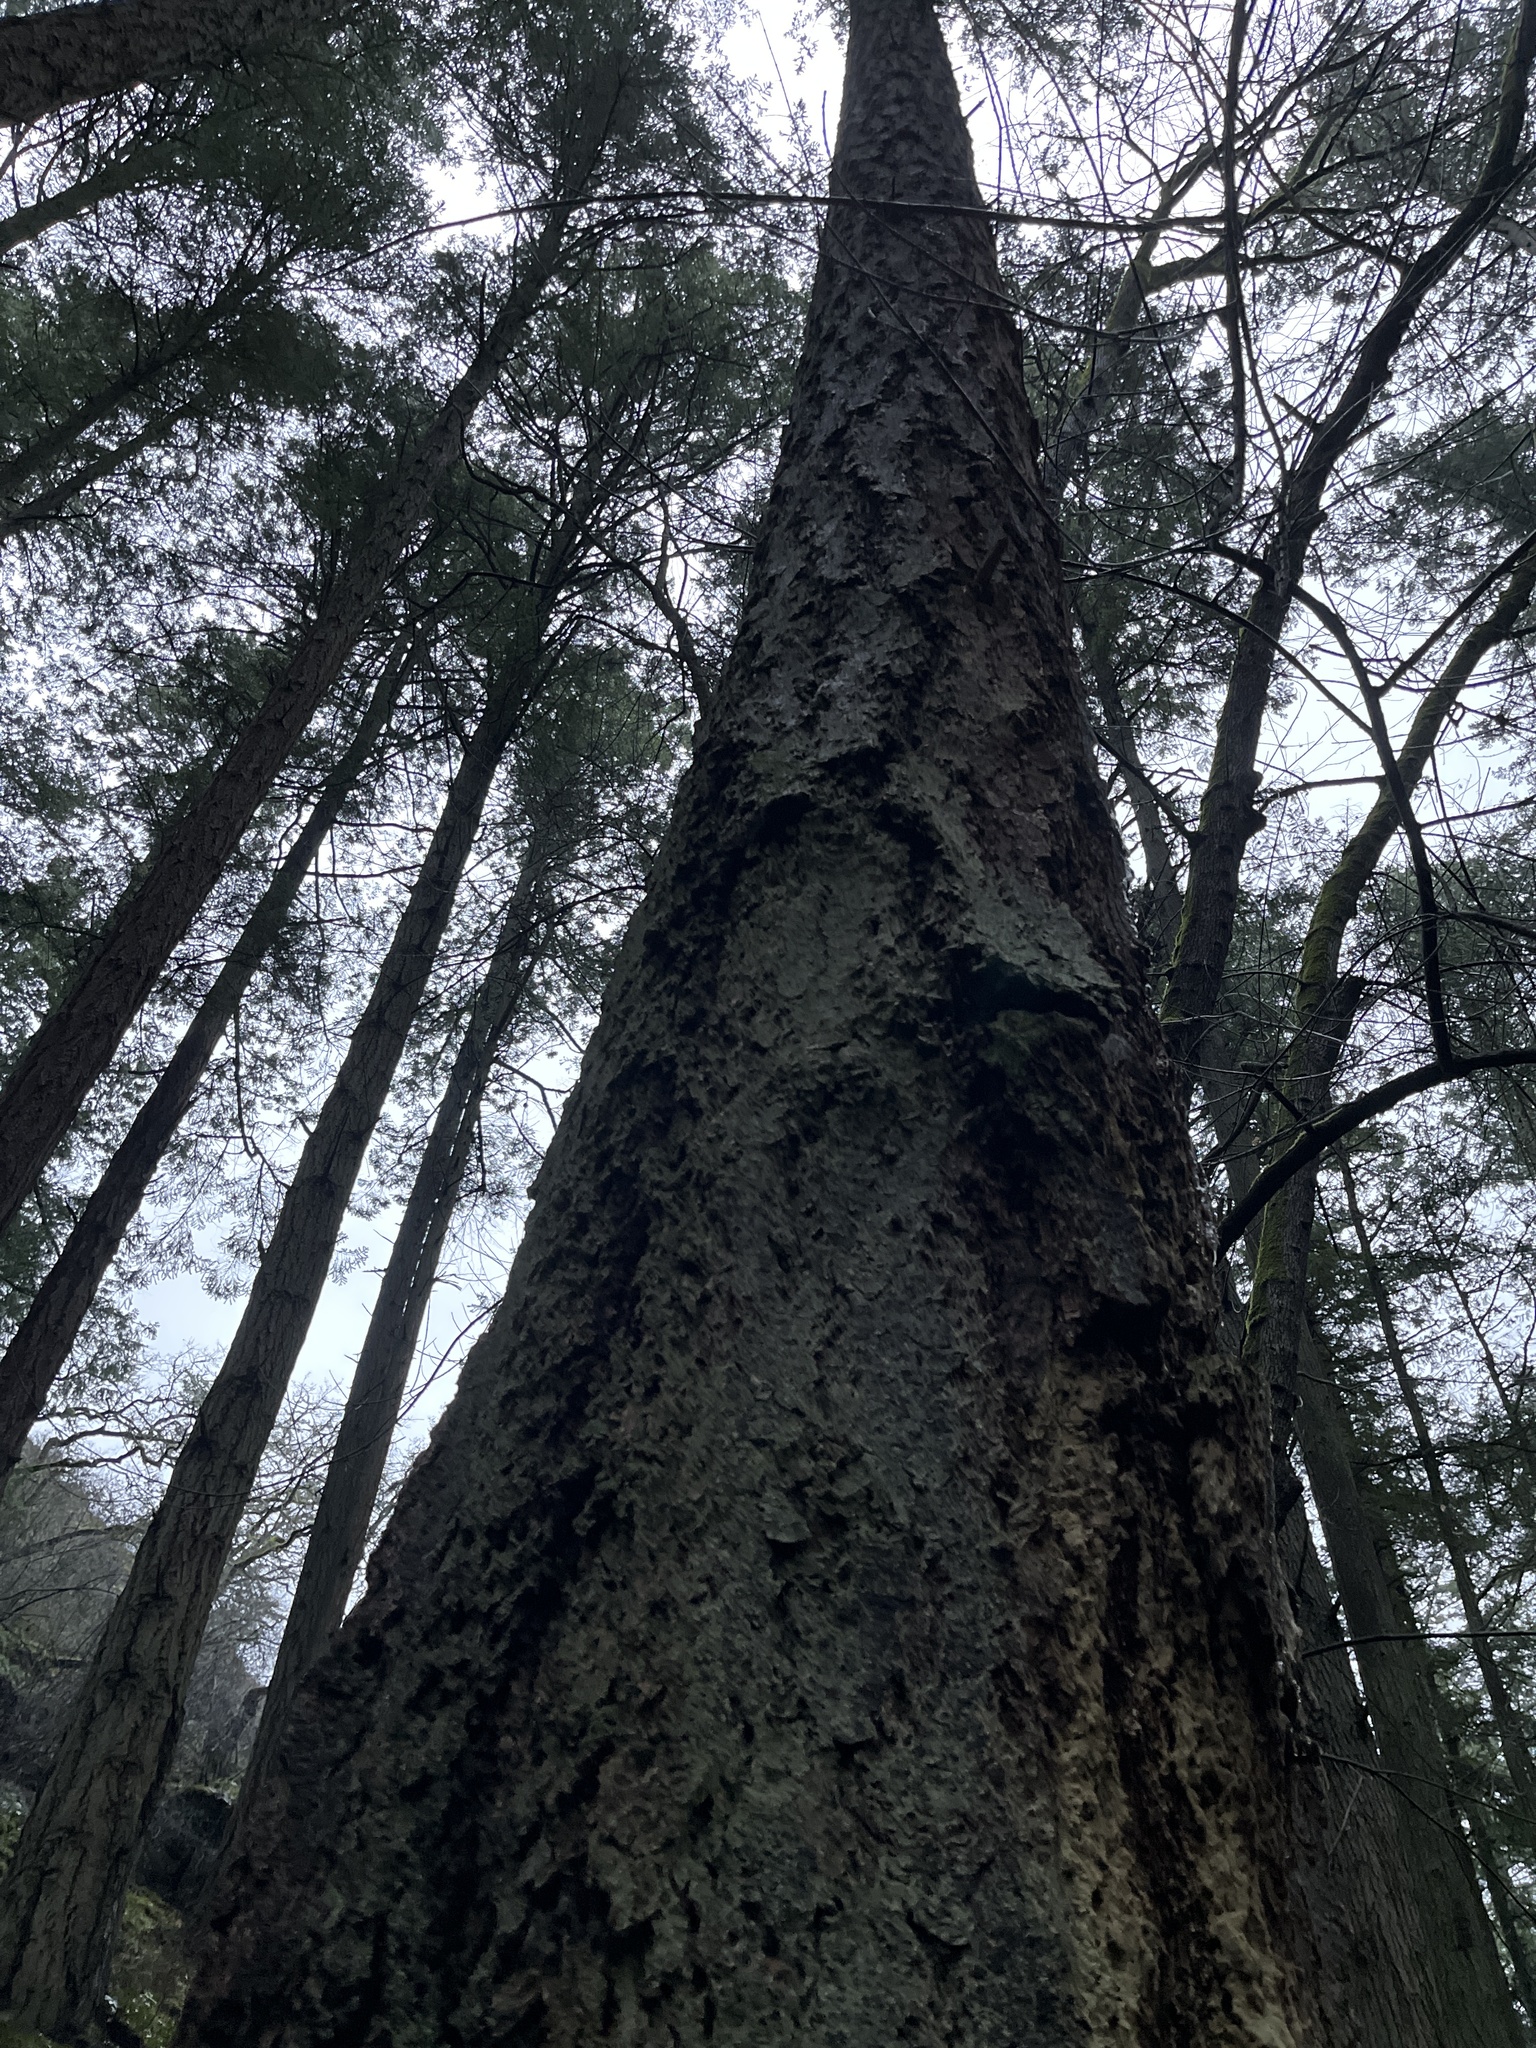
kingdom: Plantae
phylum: Tracheophyta
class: Pinopsida
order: Pinales
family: Pinaceae
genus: Pseudotsuga
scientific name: Pseudotsuga menziesii
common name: Douglas fir
